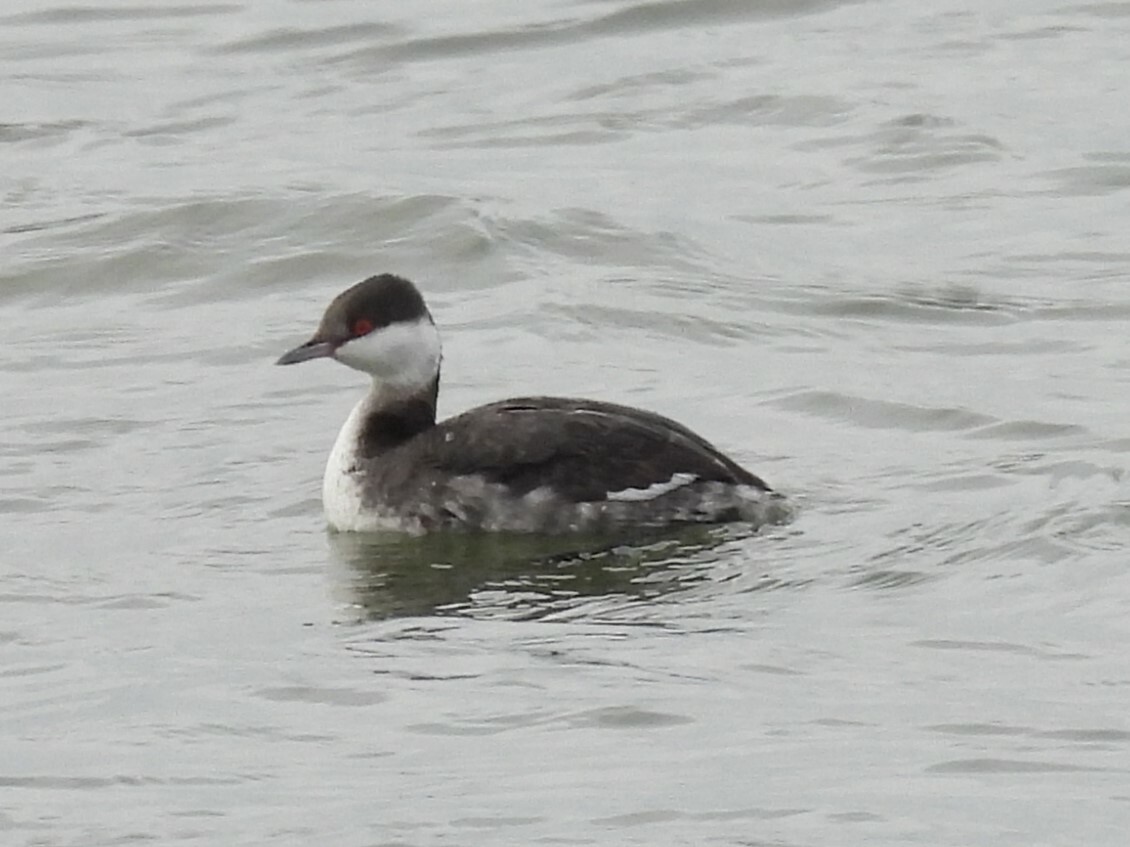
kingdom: Animalia
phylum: Chordata
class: Aves
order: Podicipediformes
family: Podicipedidae
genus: Podiceps
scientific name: Podiceps auritus
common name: Horned grebe
